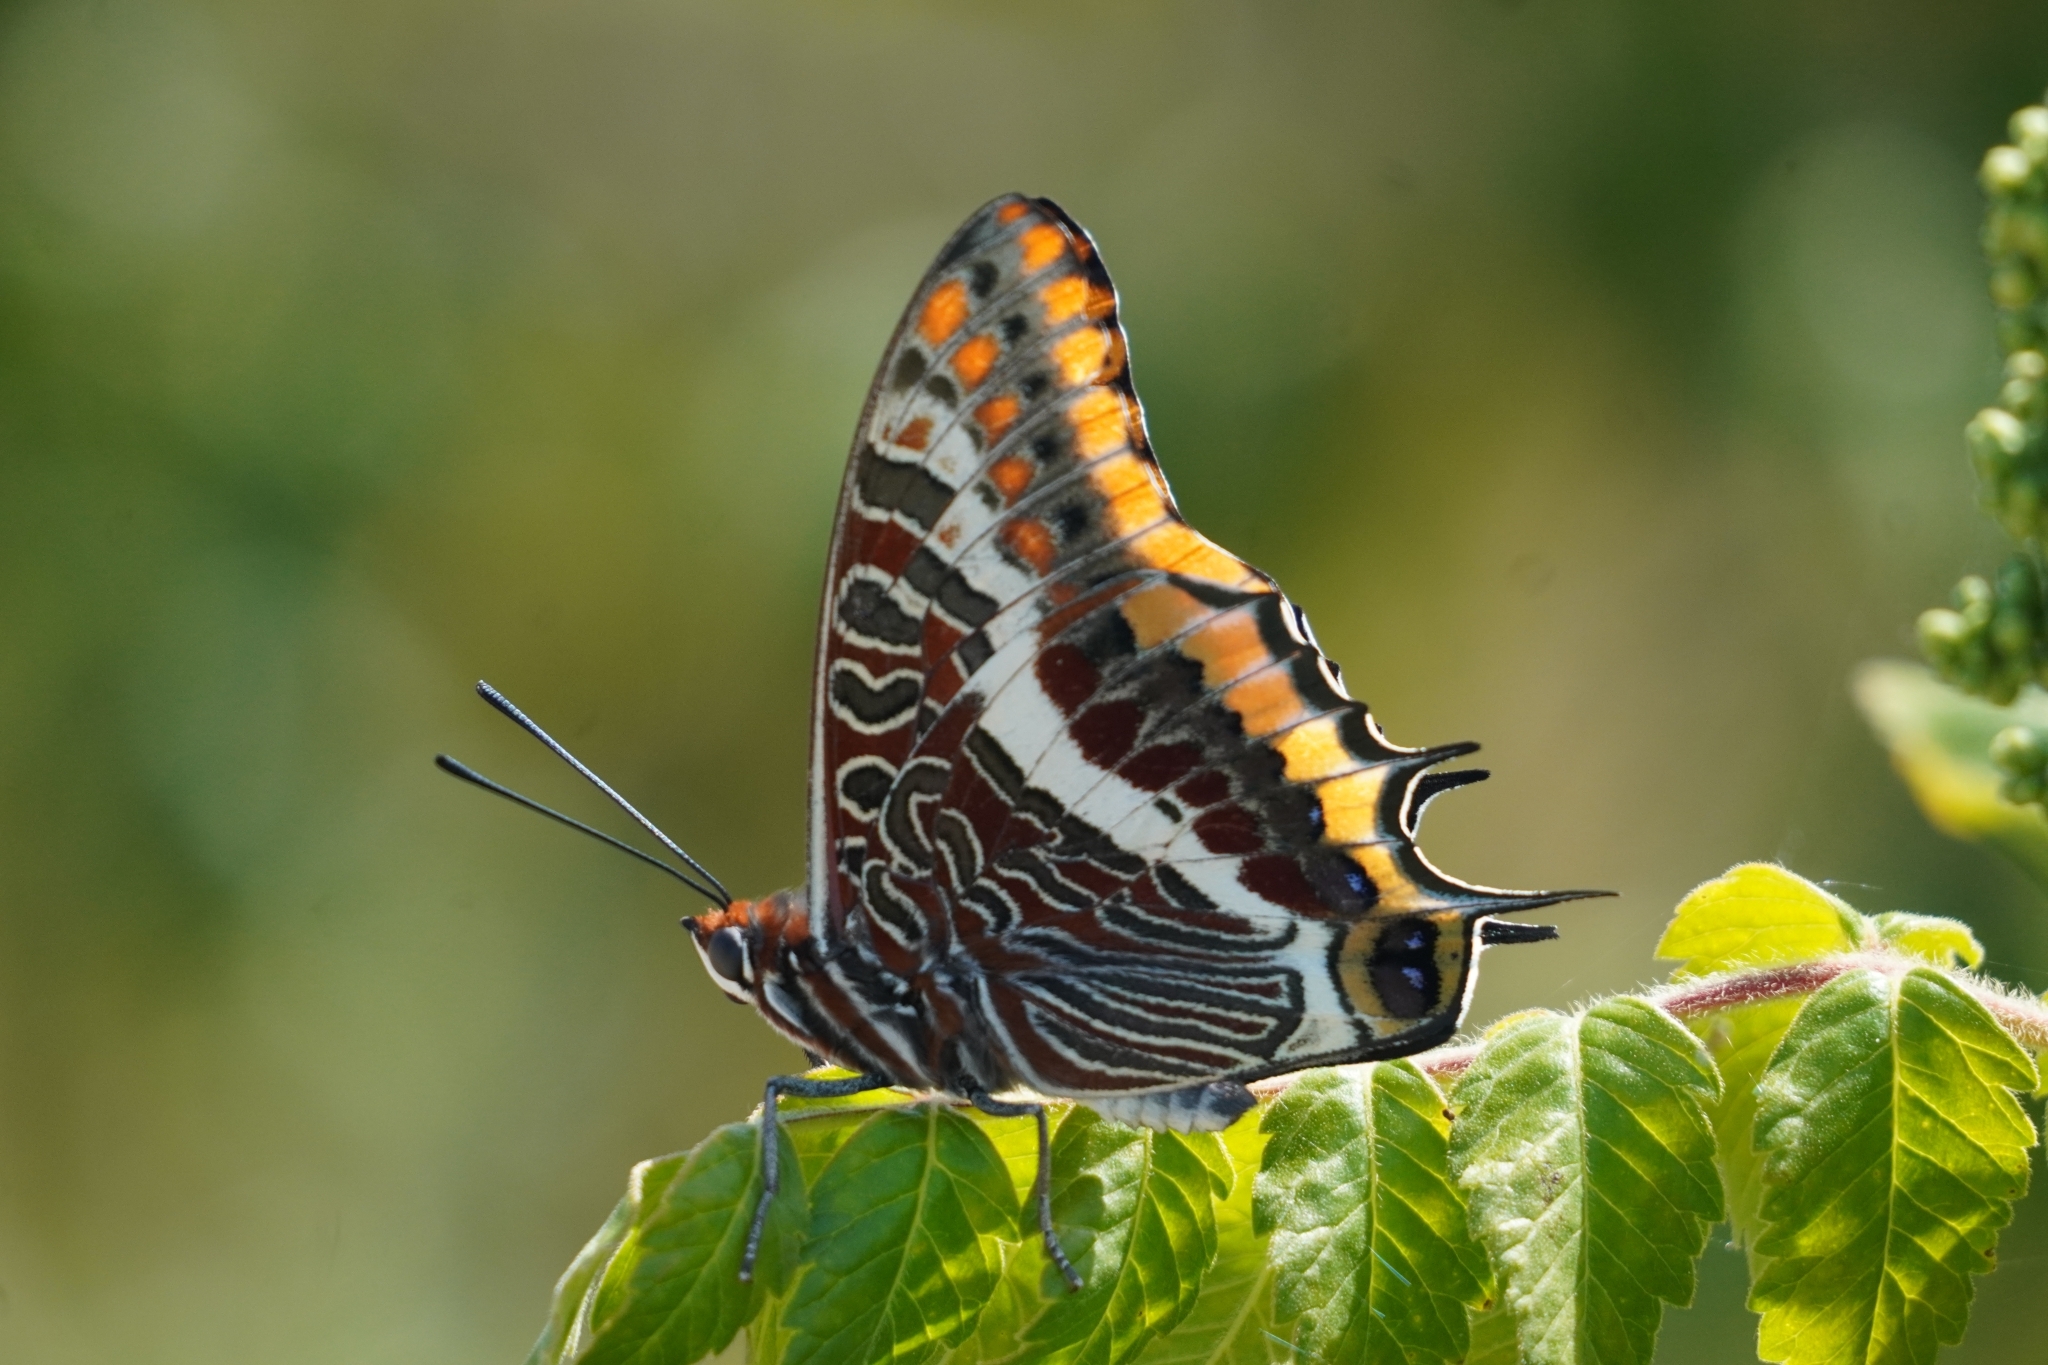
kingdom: Animalia
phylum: Arthropoda
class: Insecta
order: Lepidoptera
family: Nymphalidae
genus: Charaxes
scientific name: Charaxes jasius
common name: Two tailed pasha
